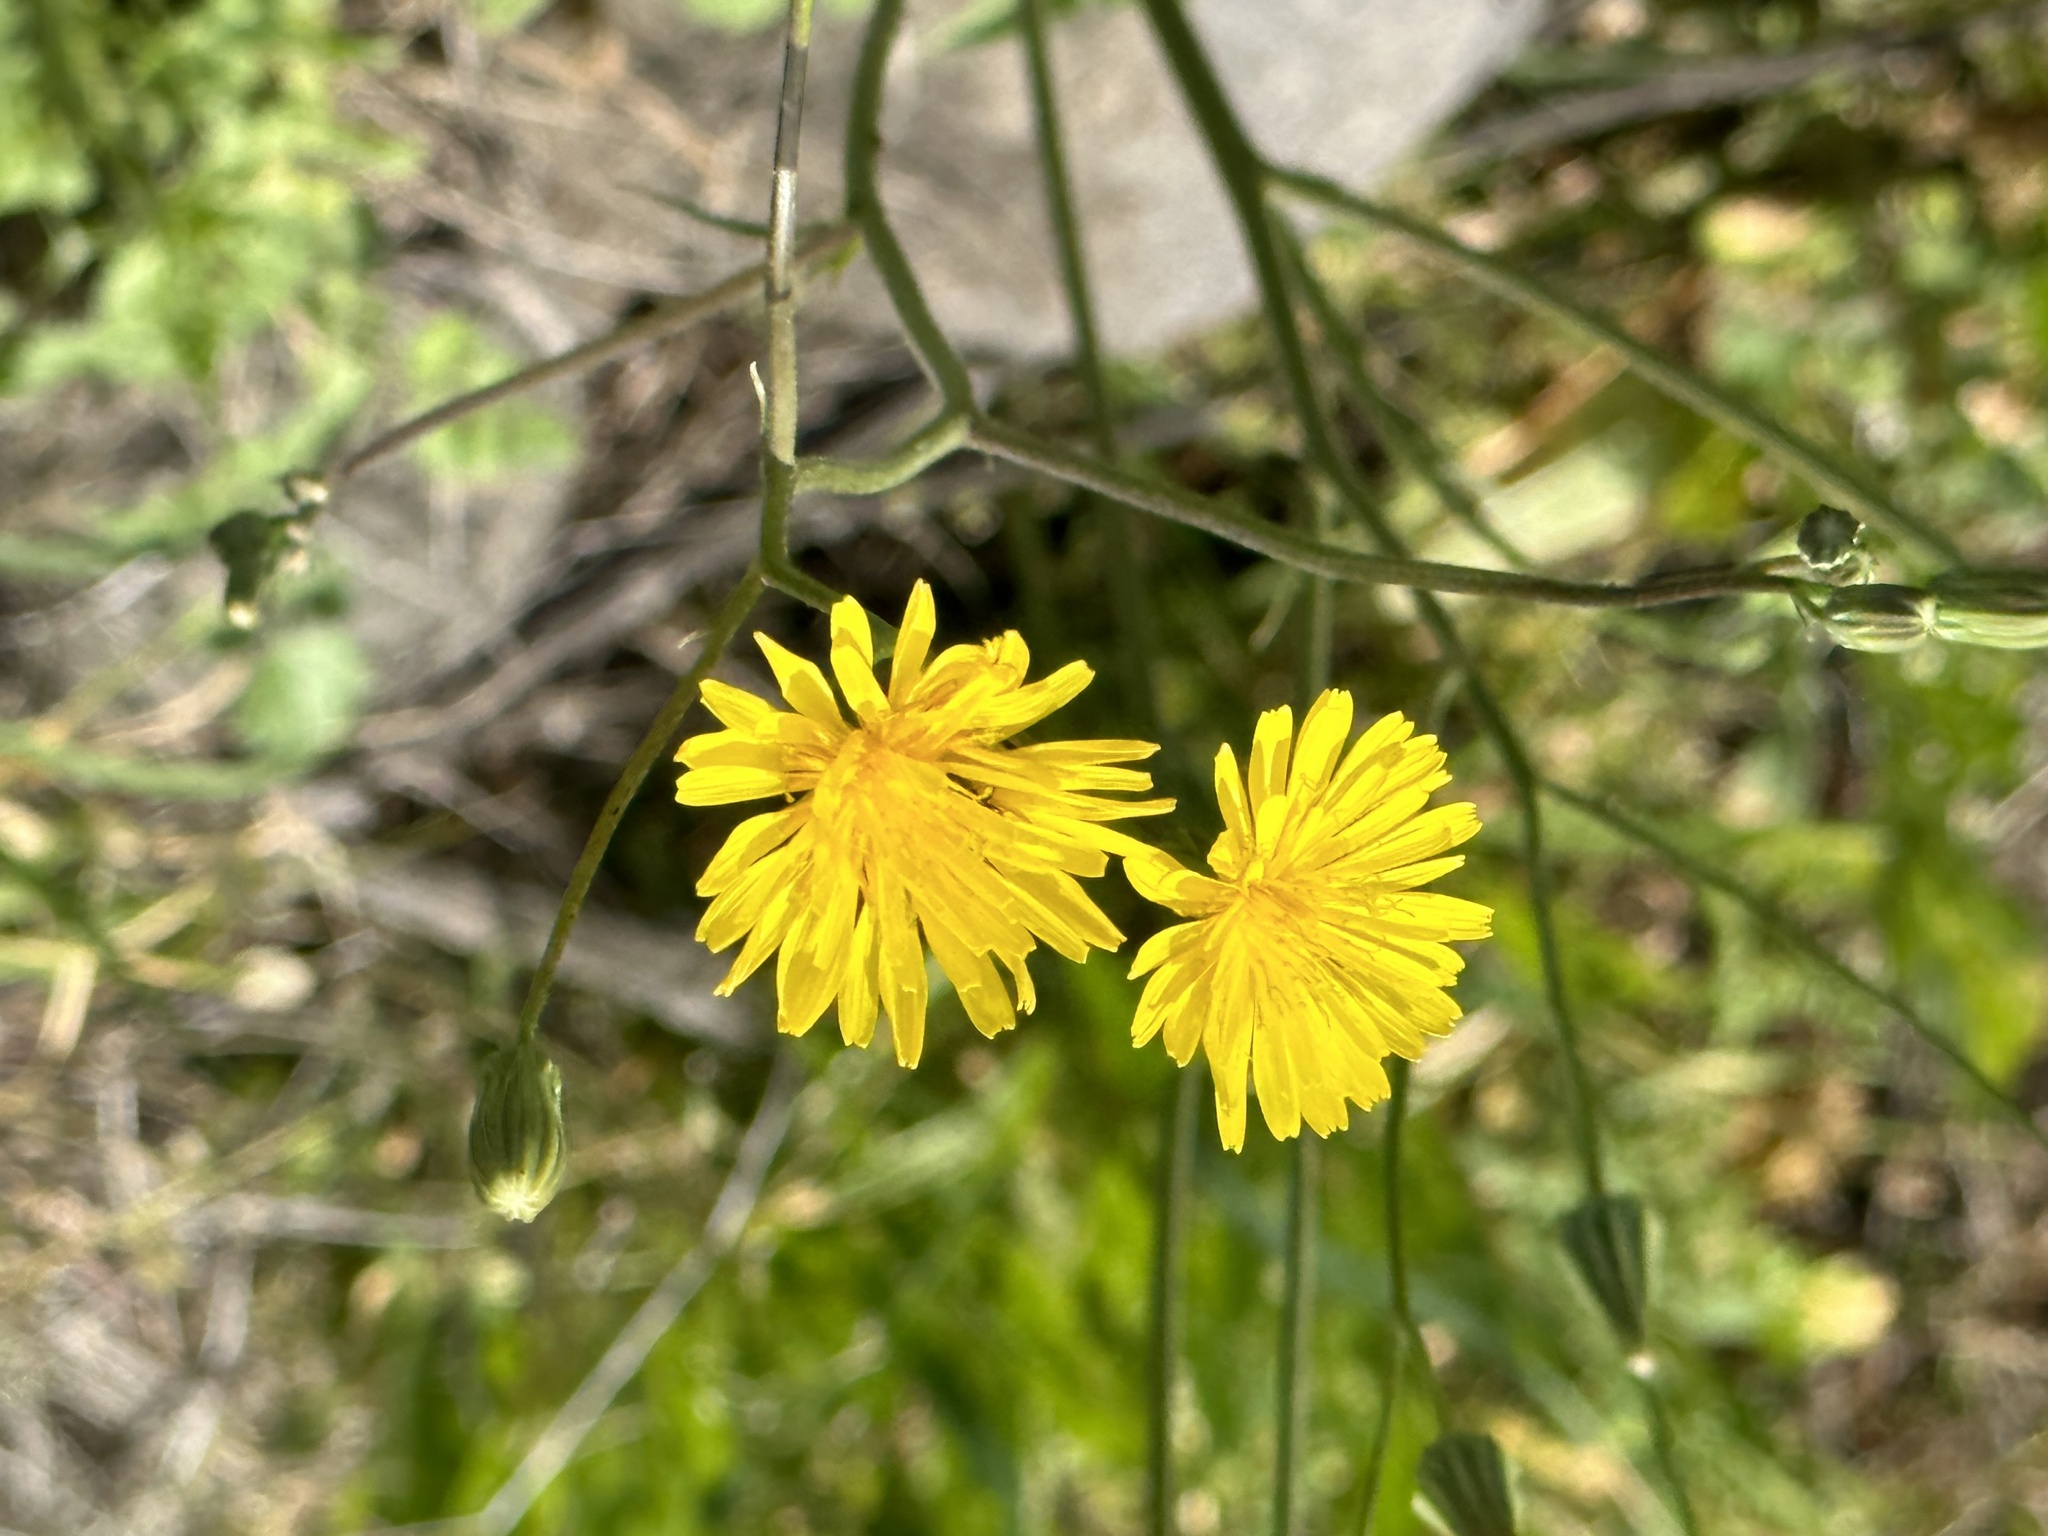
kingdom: Plantae
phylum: Tracheophyta
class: Magnoliopsida
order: Asterales
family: Asteraceae
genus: Crepis
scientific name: Crepis sancta
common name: Hawk's-beard
